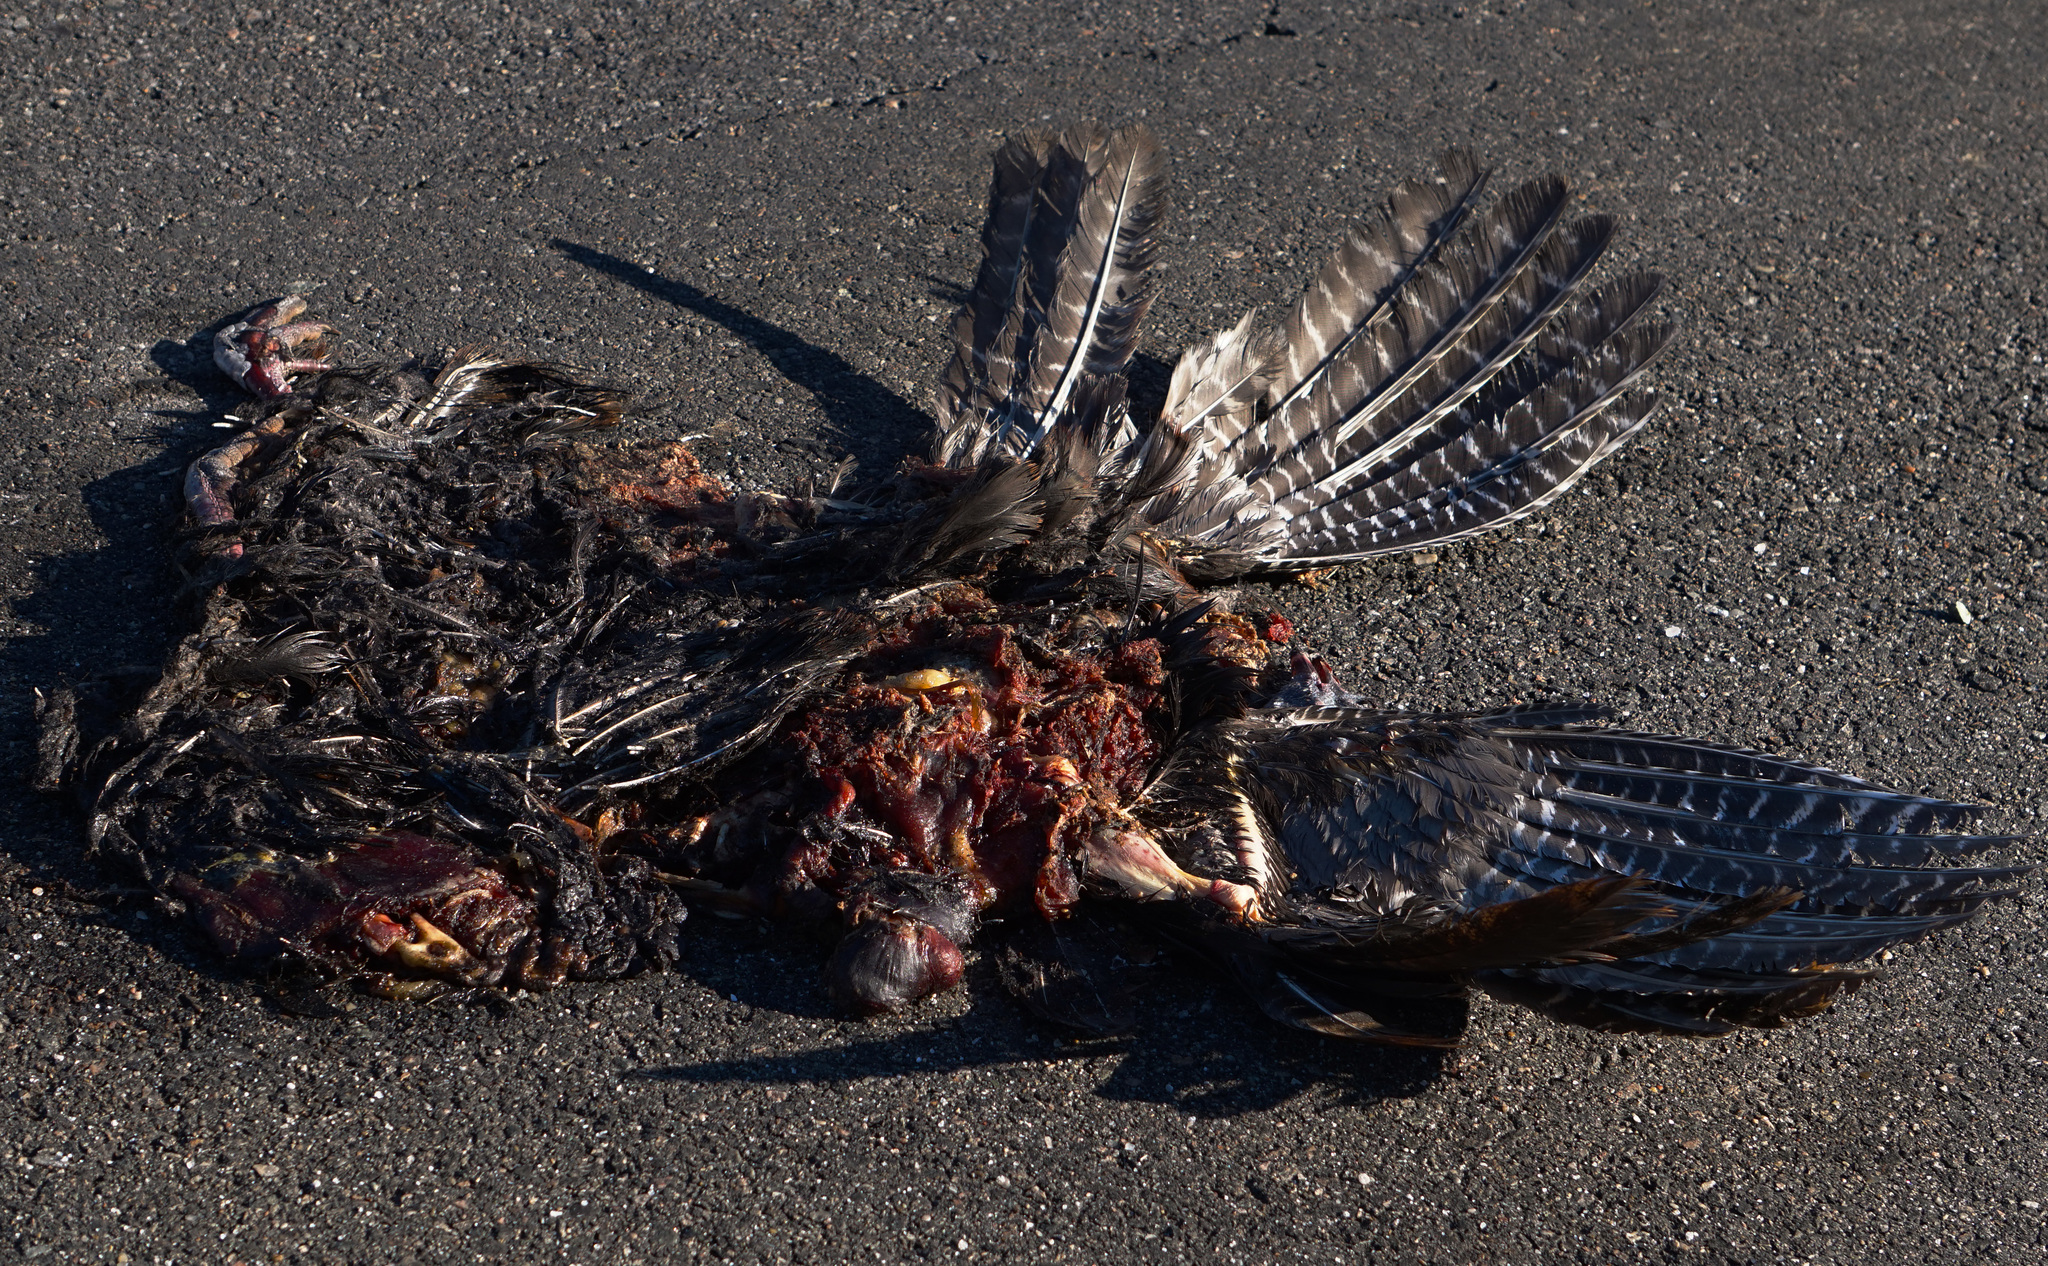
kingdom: Animalia
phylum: Chordata
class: Aves
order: Galliformes
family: Phasianidae
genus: Meleagris
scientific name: Meleagris gallopavo
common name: Wild turkey
